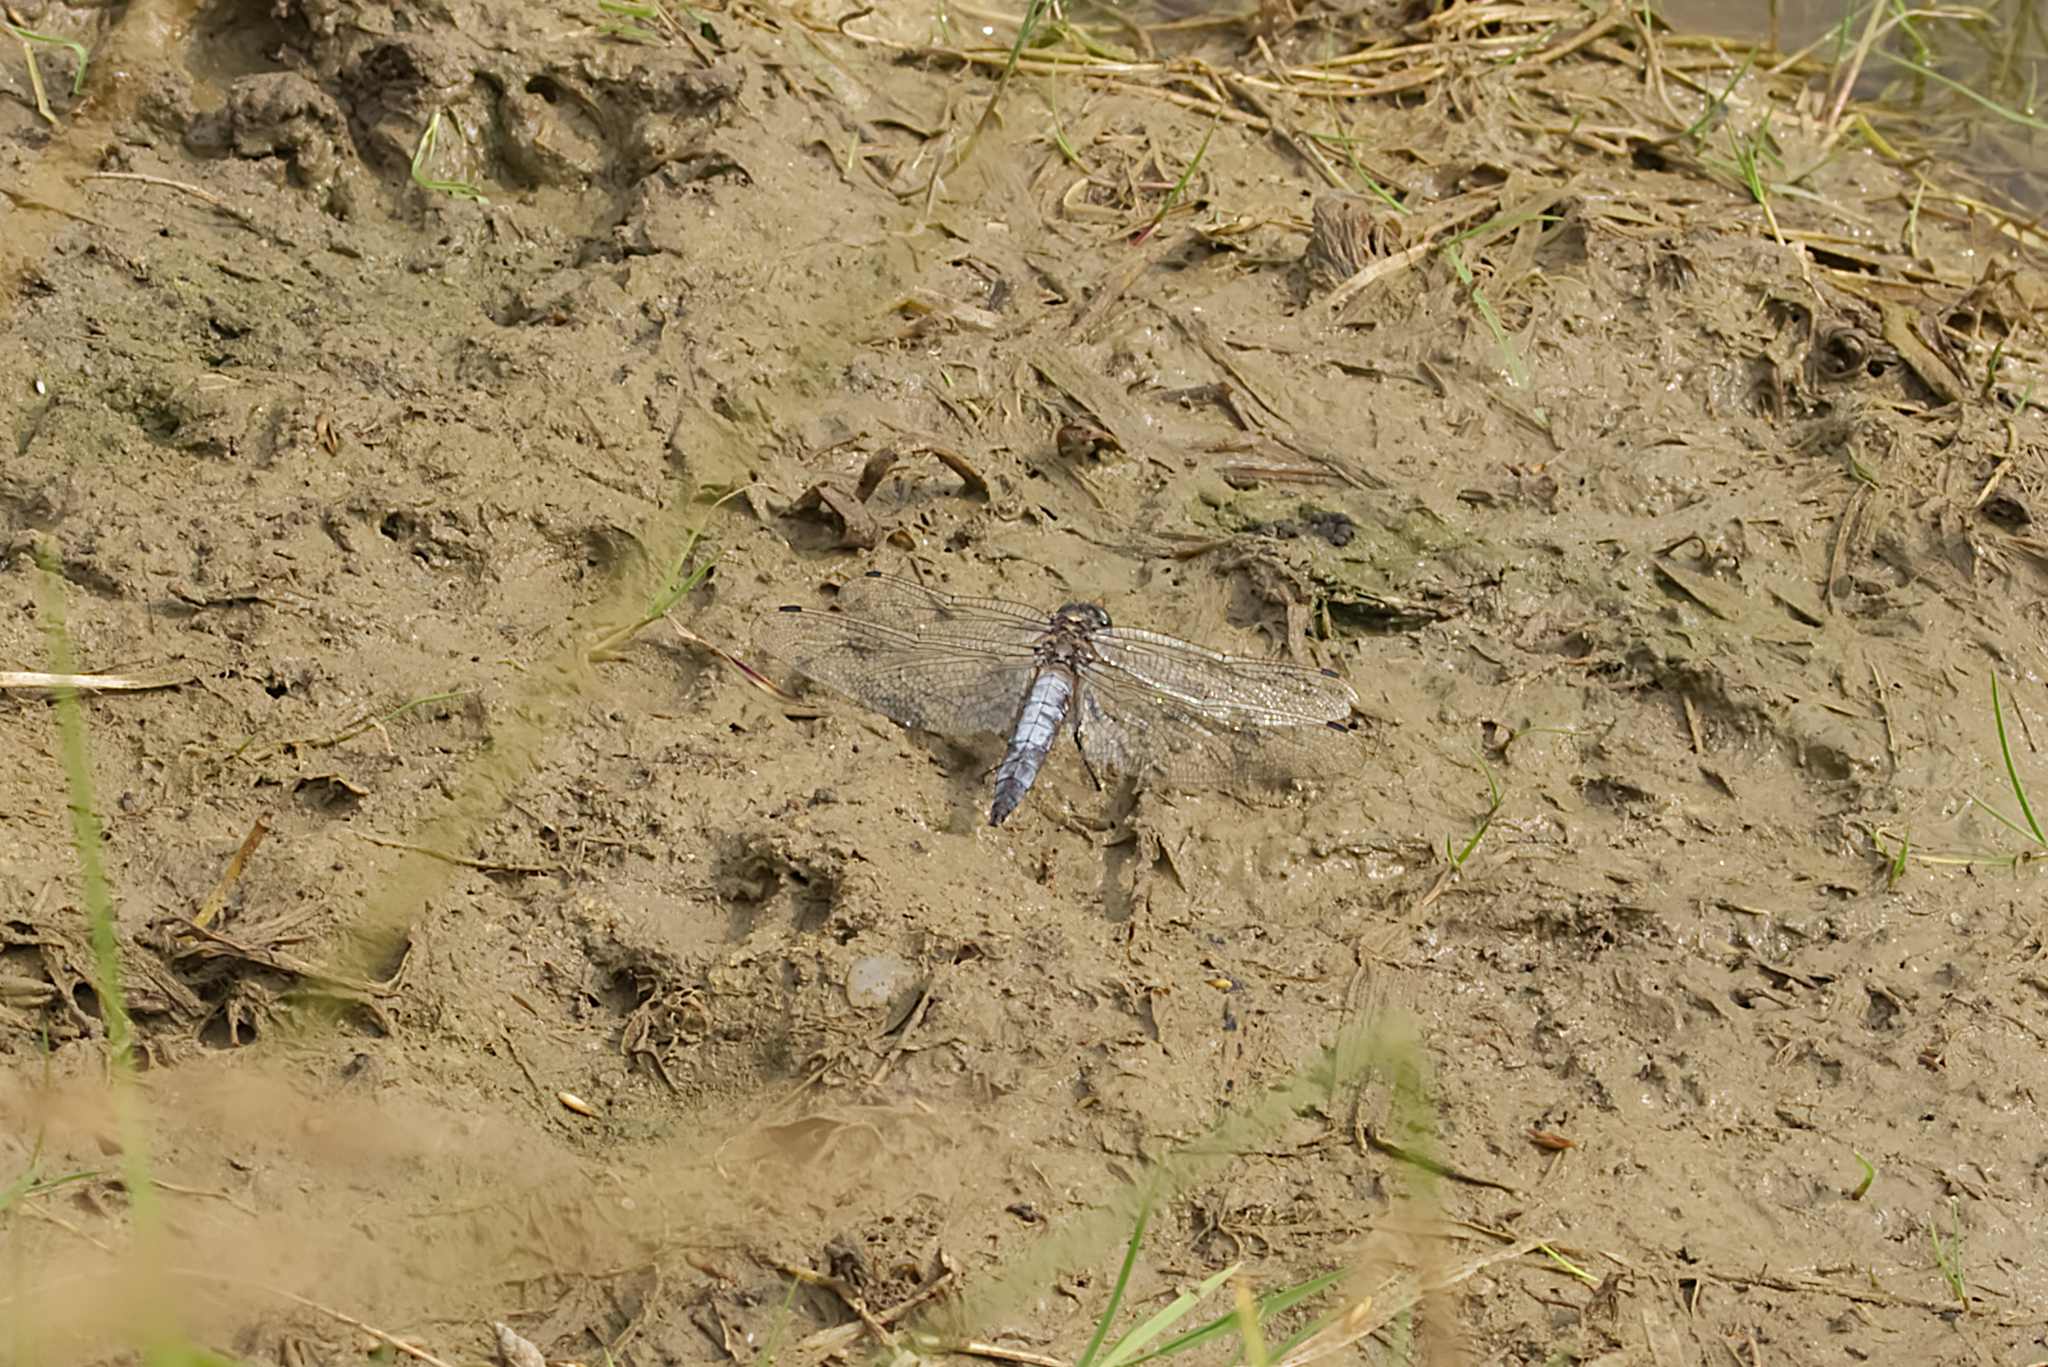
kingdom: Animalia
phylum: Arthropoda
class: Insecta
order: Odonata
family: Libellulidae
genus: Orthetrum
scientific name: Orthetrum cancellatum
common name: Black-tailed skimmer
